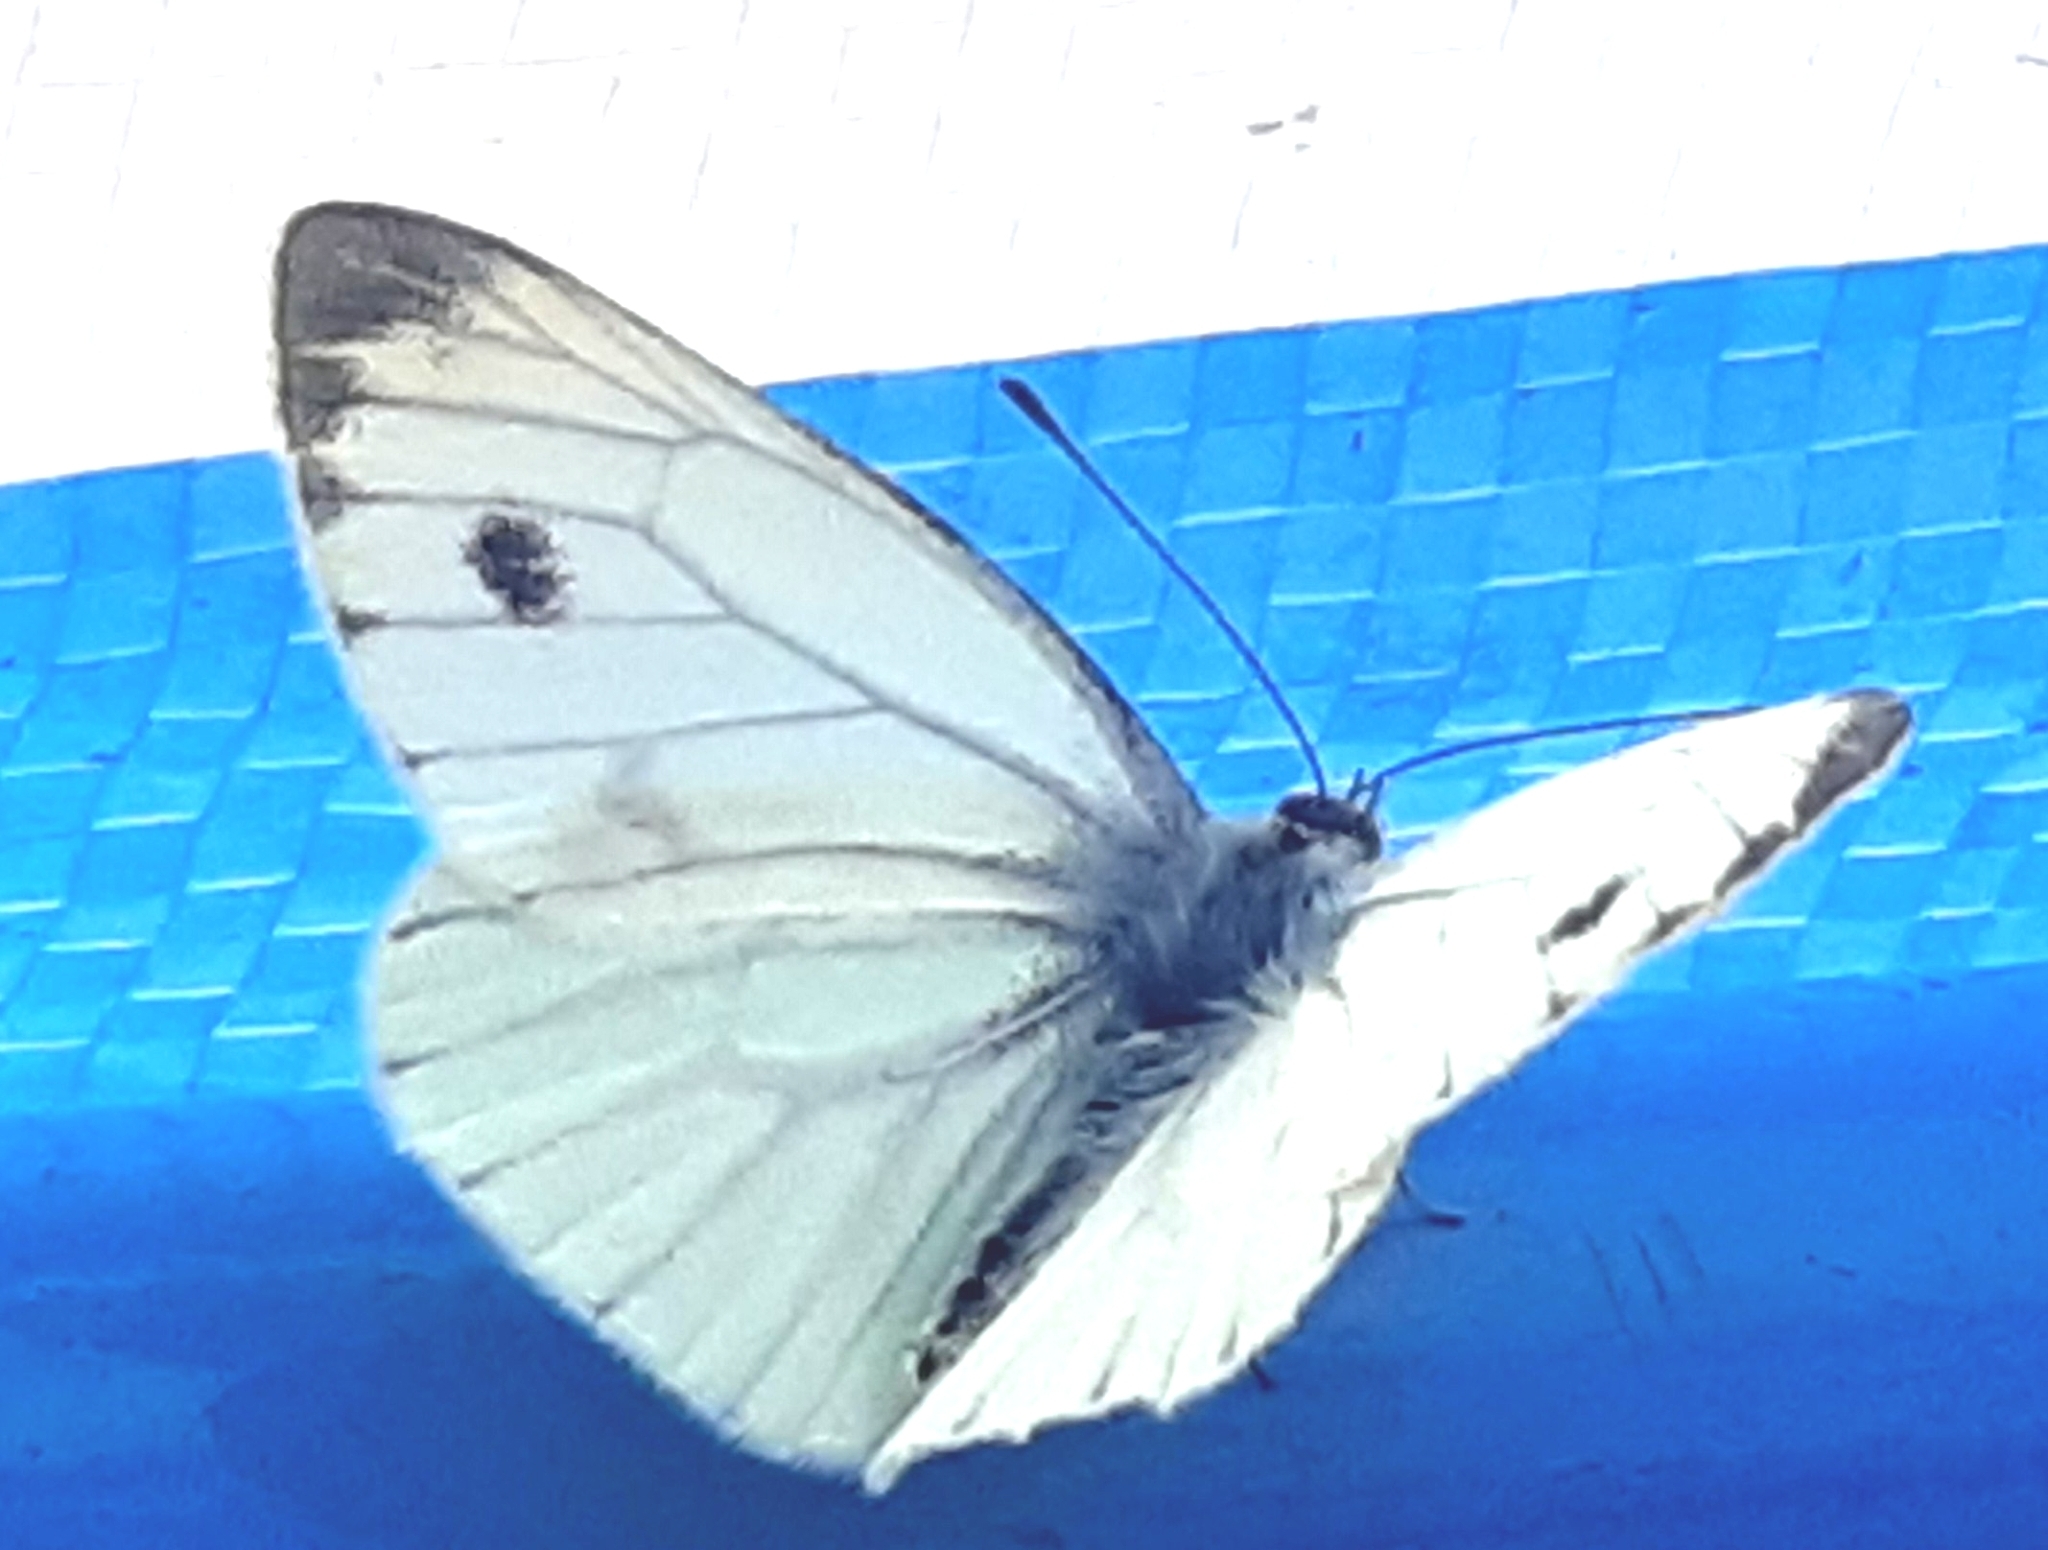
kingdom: Animalia
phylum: Arthropoda
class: Insecta
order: Lepidoptera
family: Pieridae
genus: Pieris
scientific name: Pieris napi
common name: Green-veined white
